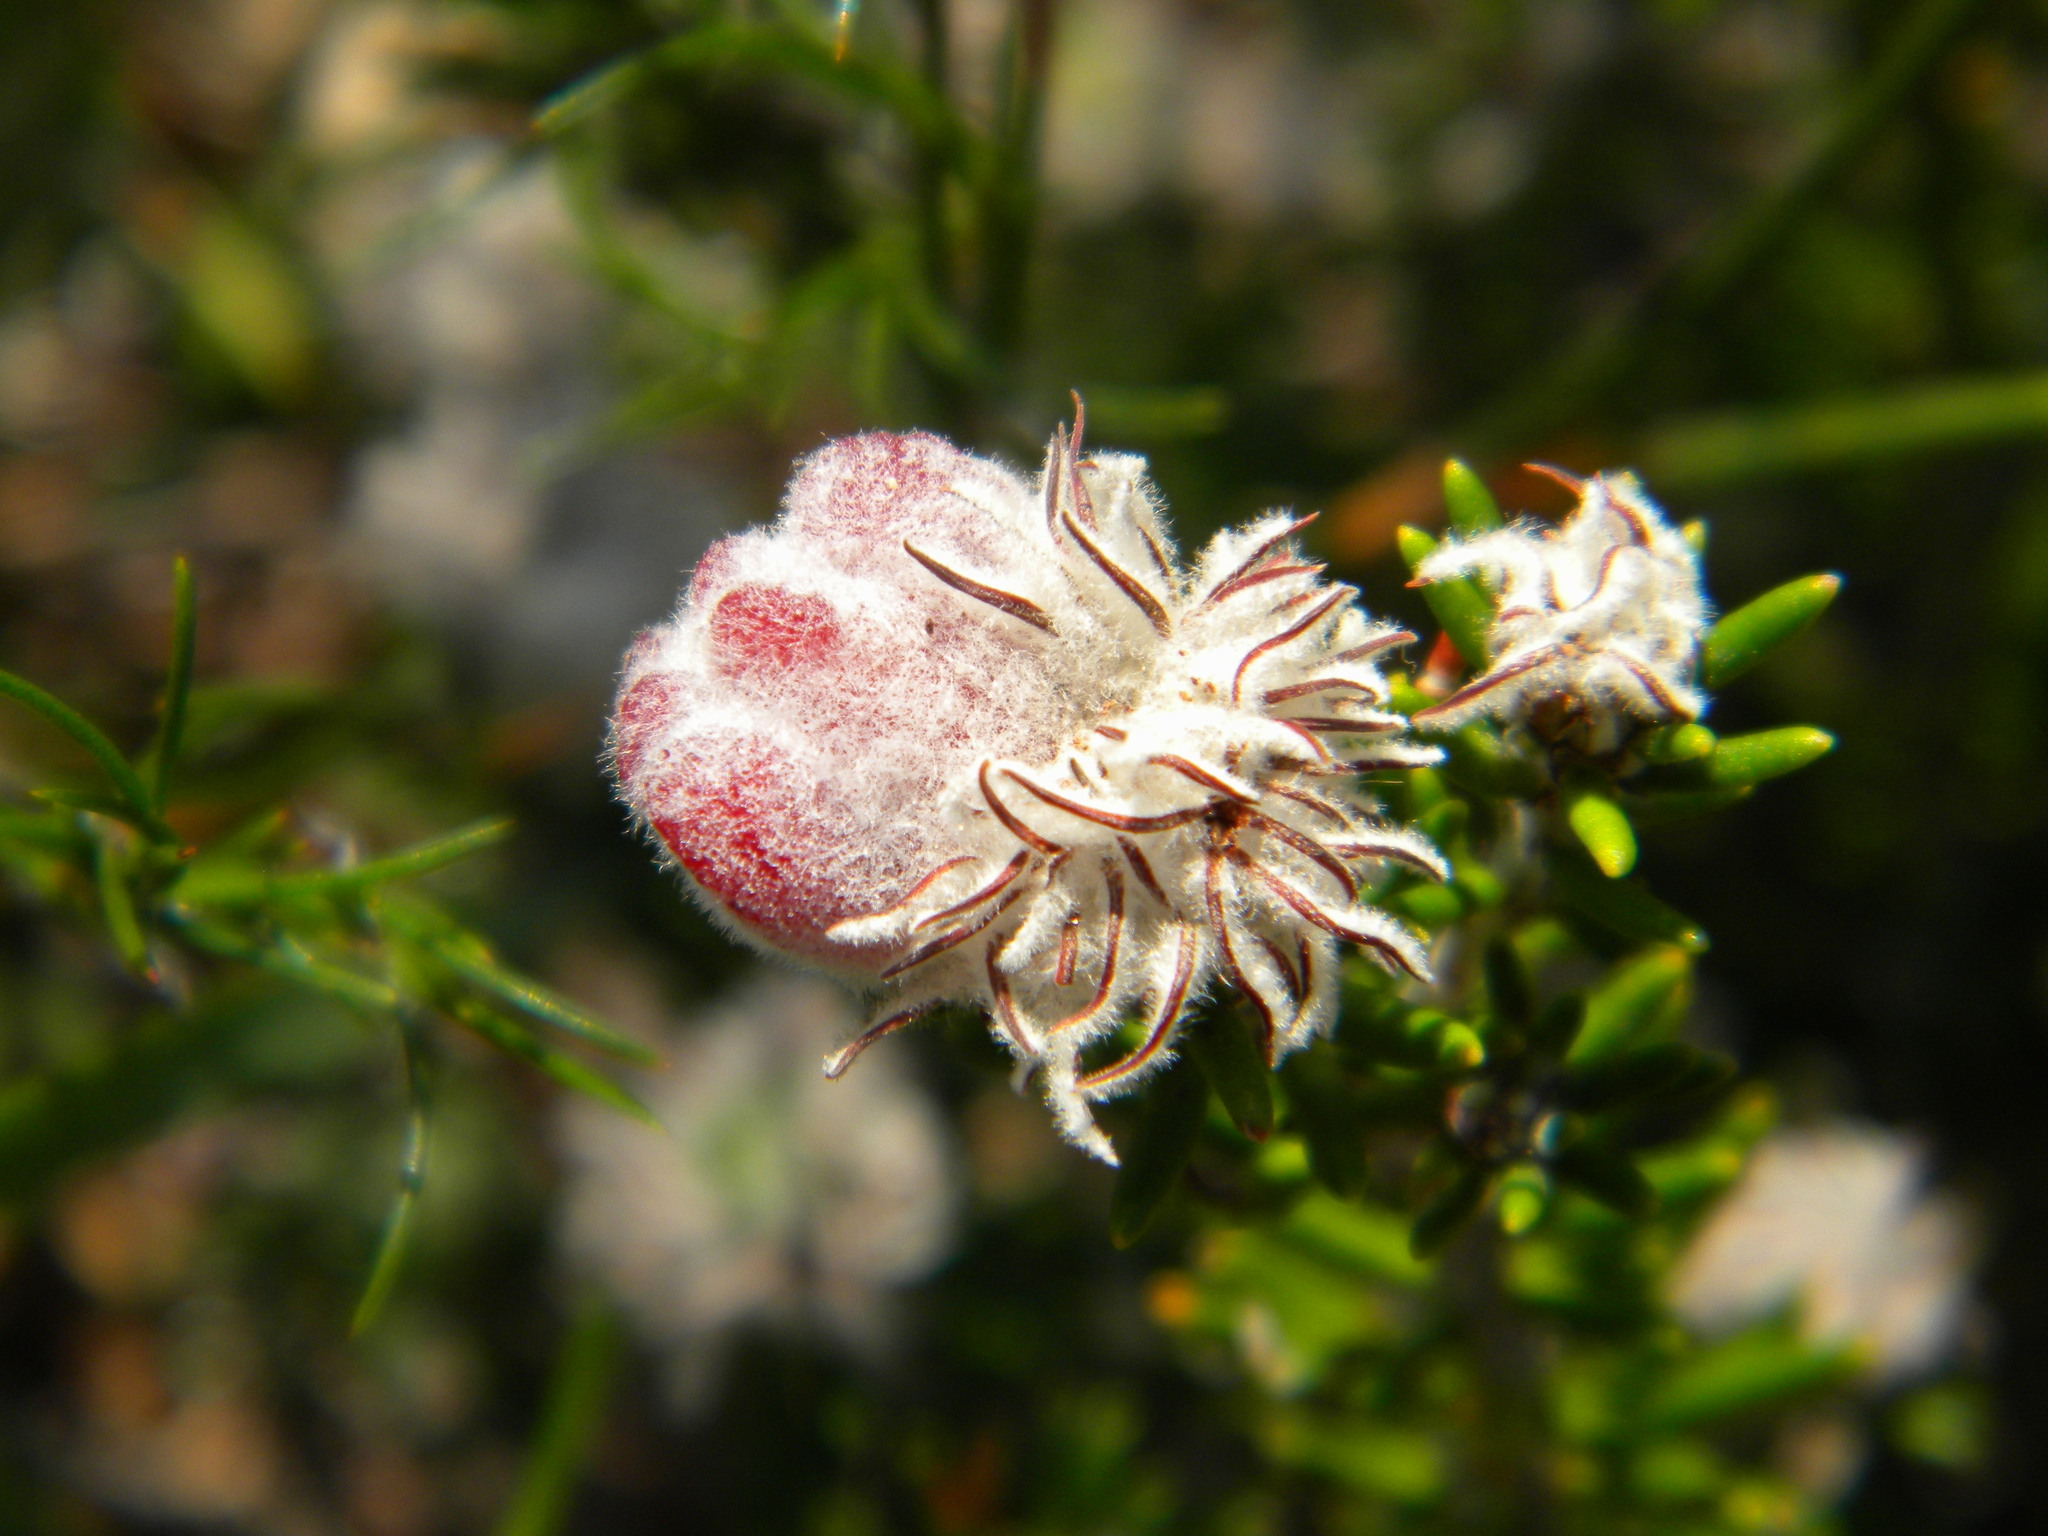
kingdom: Plantae
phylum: Tracheophyta
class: Magnoliopsida
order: Rosales
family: Rhamnaceae
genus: Trichocephalus
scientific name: Trichocephalus stipularis
